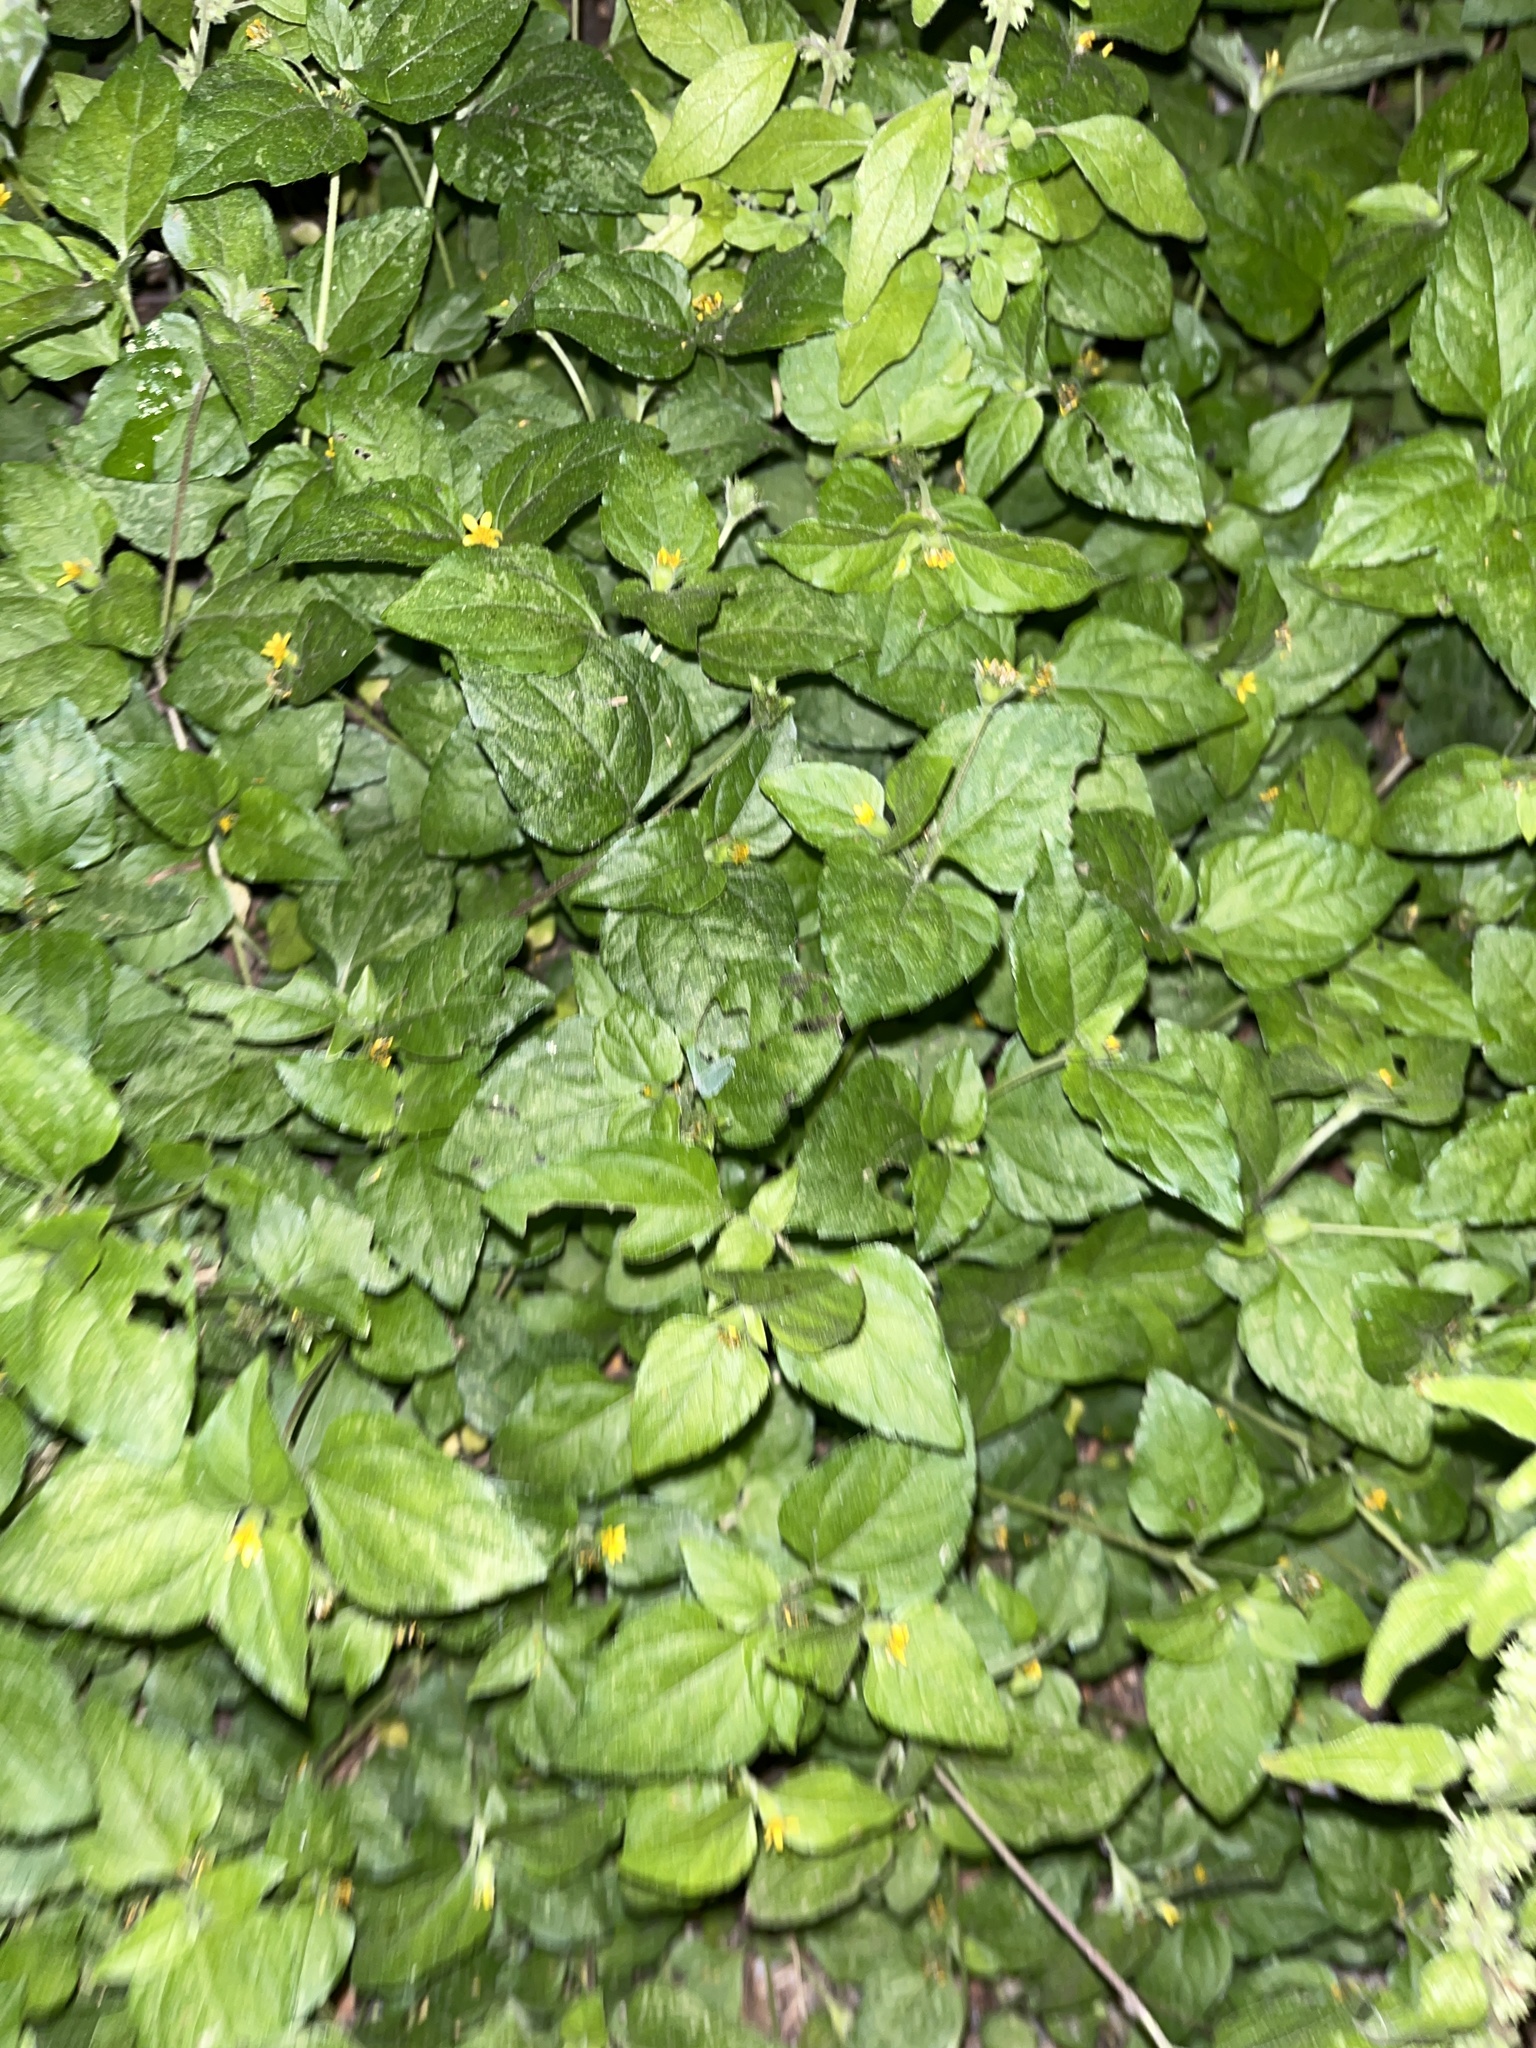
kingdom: Plantae
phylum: Tracheophyta
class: Magnoliopsida
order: Asterales
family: Asteraceae
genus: Calyptocarpus
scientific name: Calyptocarpus vialis
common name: Straggler daisy
